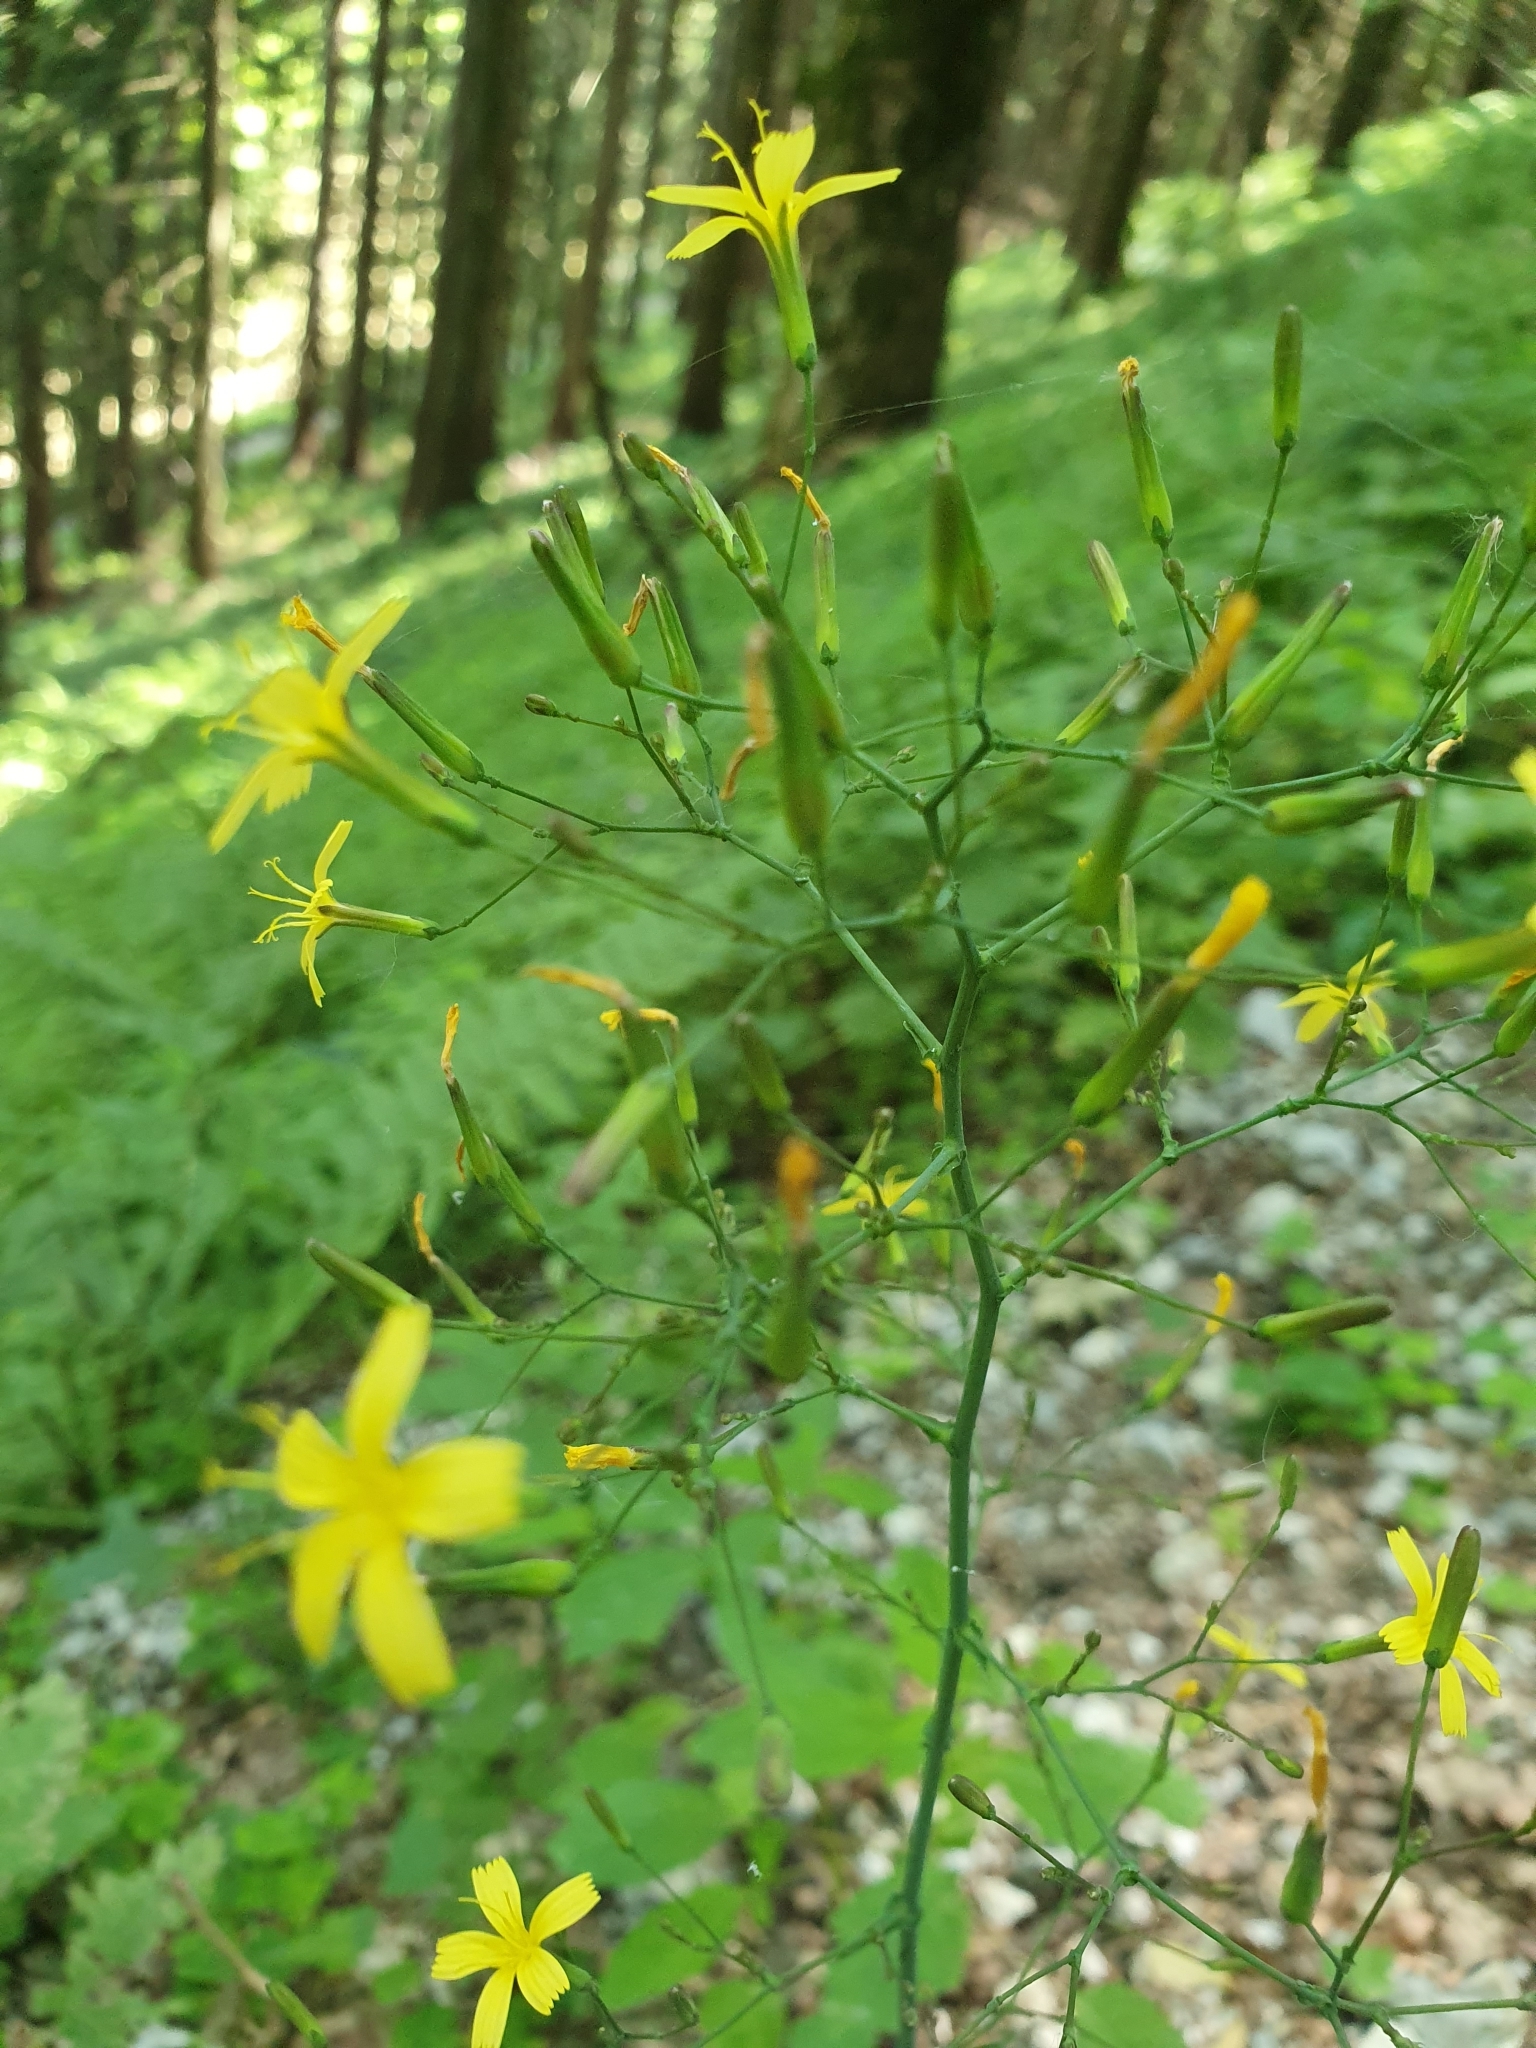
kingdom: Plantae
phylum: Tracheophyta
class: Magnoliopsida
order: Asterales
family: Asteraceae
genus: Mycelis
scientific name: Mycelis muralis
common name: Wall lettuce
